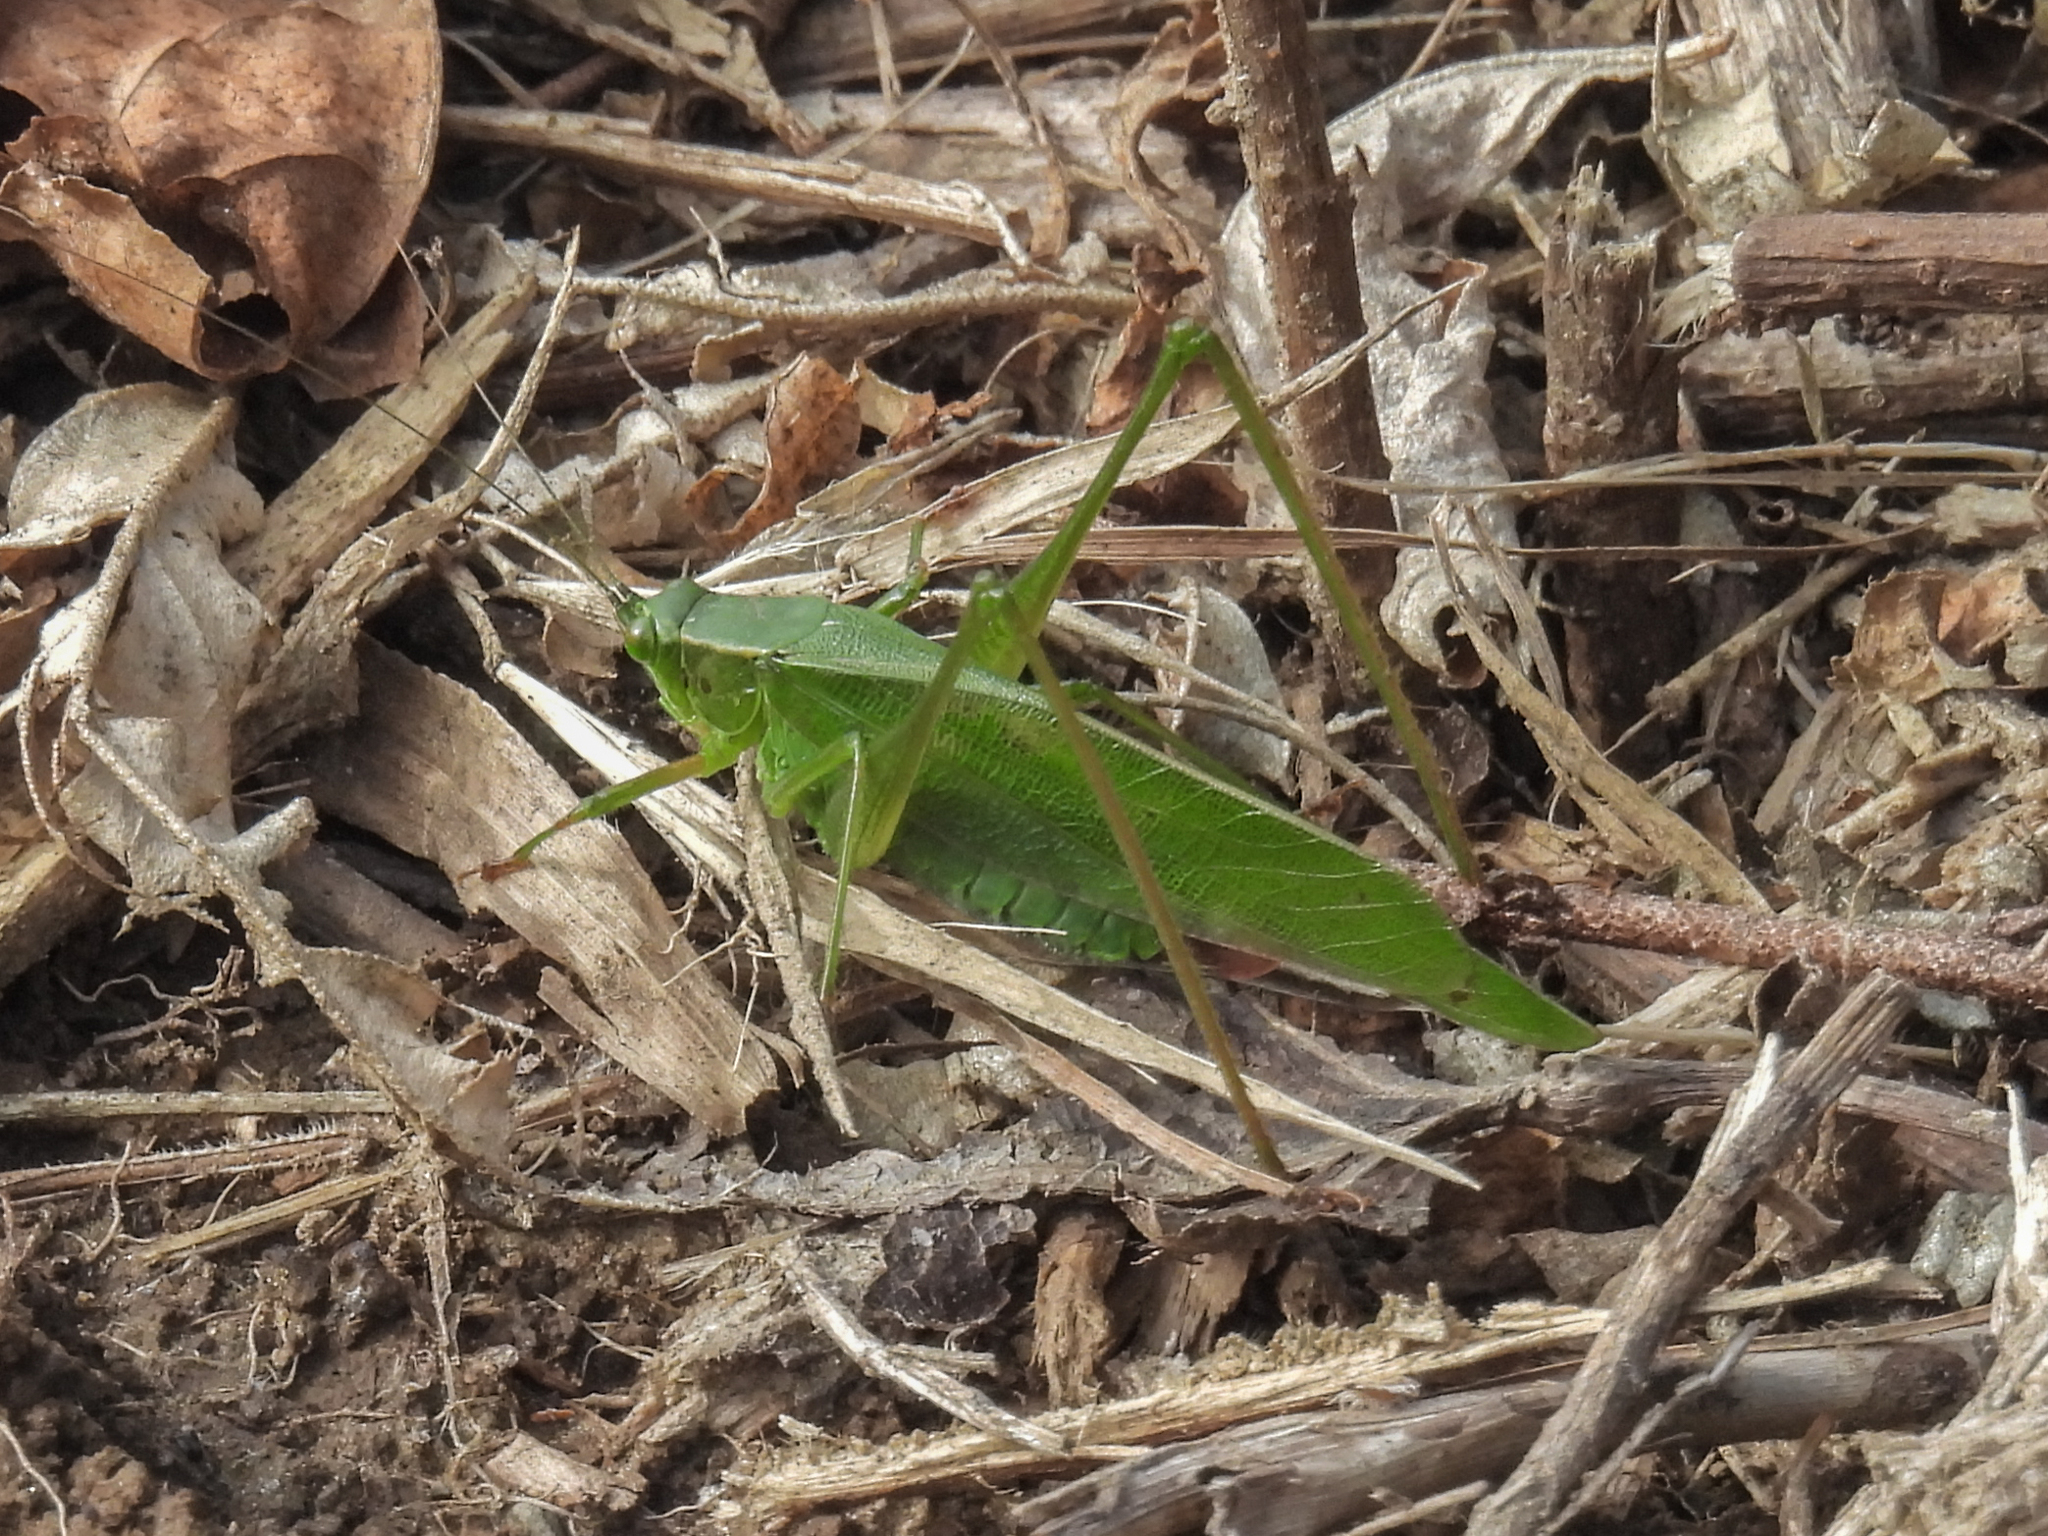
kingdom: Animalia
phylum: Arthropoda
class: Insecta
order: Orthoptera
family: Tettigoniidae
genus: Scudderia
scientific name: Scudderia furcata
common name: Fork-tailed bush katydid
